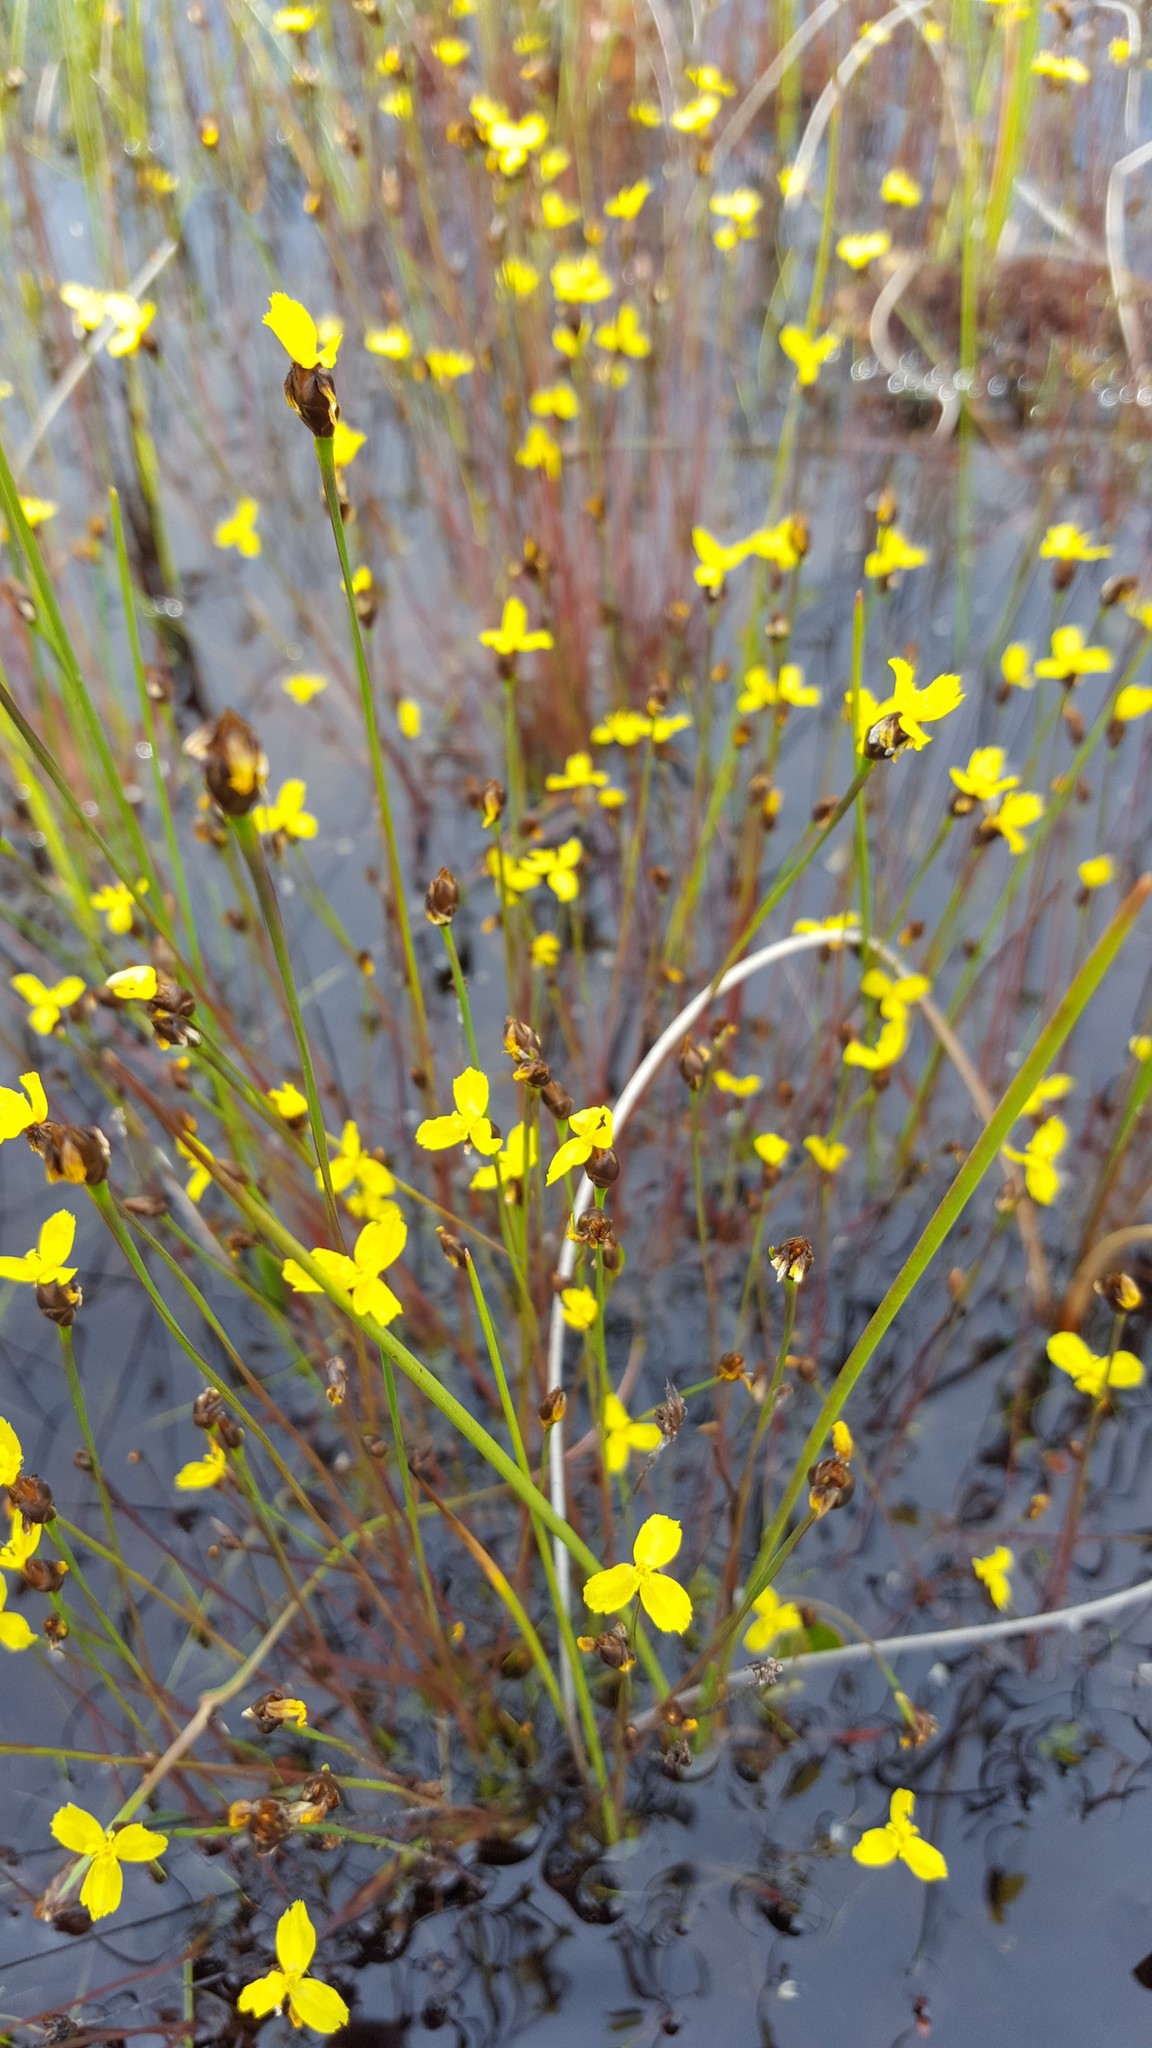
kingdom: Plantae
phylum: Tracheophyta
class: Liliopsida
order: Poales
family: Xyridaceae
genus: Xyris
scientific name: Xyris montana
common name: Northern yellow-eyed-grass
